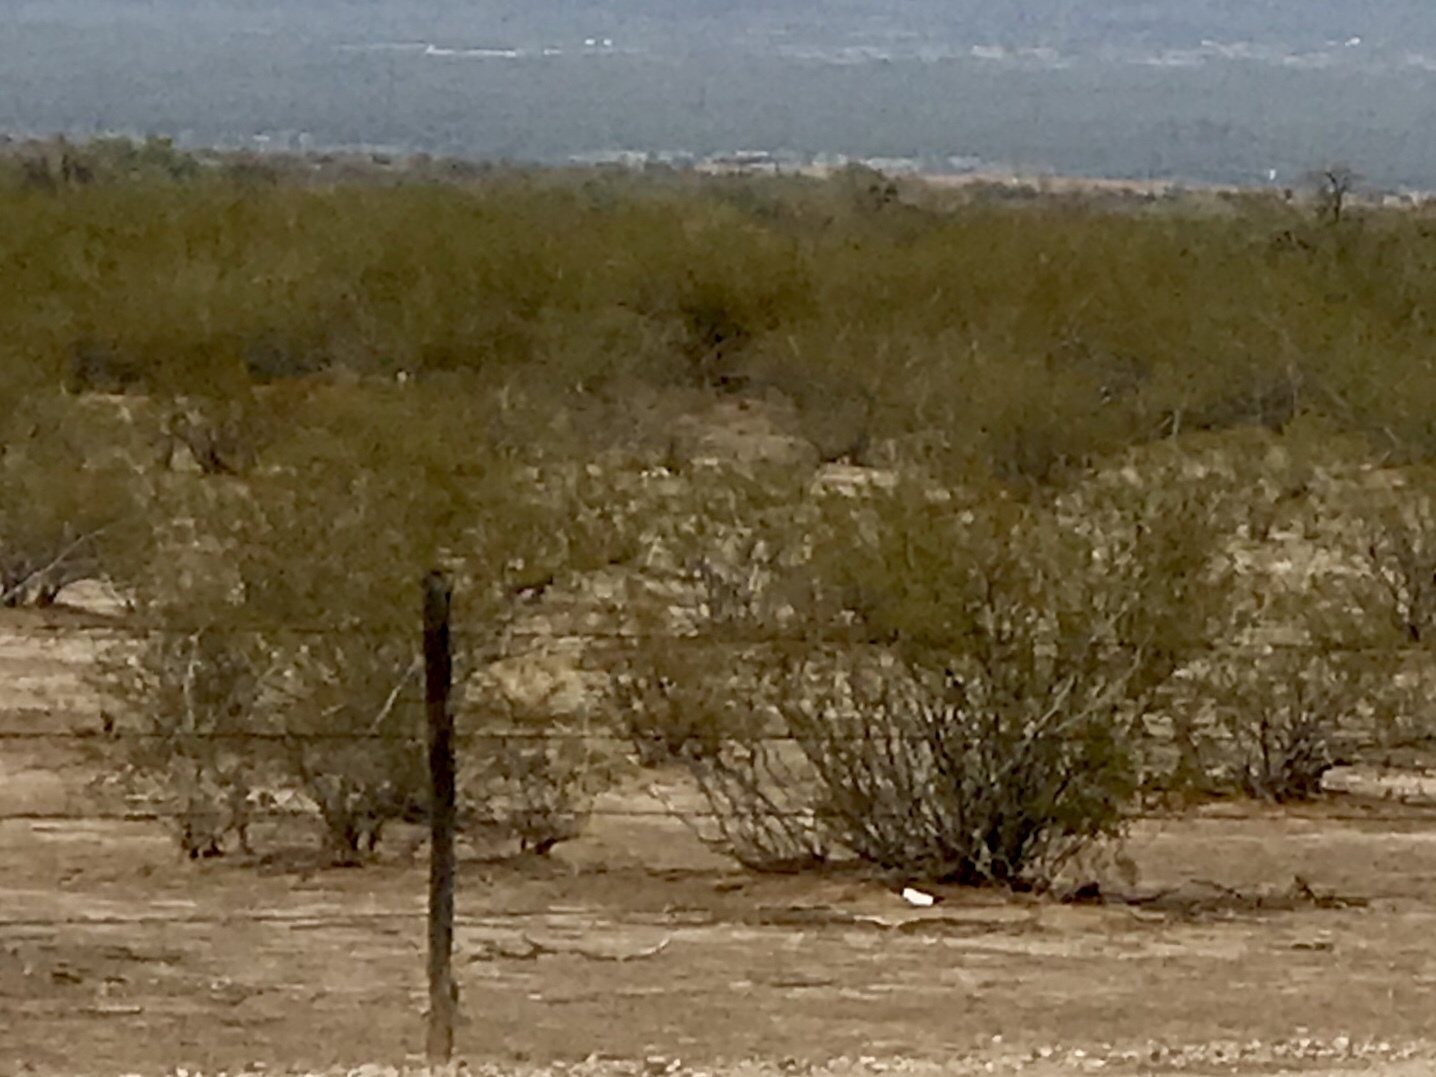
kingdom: Plantae
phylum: Tracheophyta
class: Magnoliopsida
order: Zygophyllales
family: Zygophyllaceae
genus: Larrea
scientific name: Larrea tridentata
